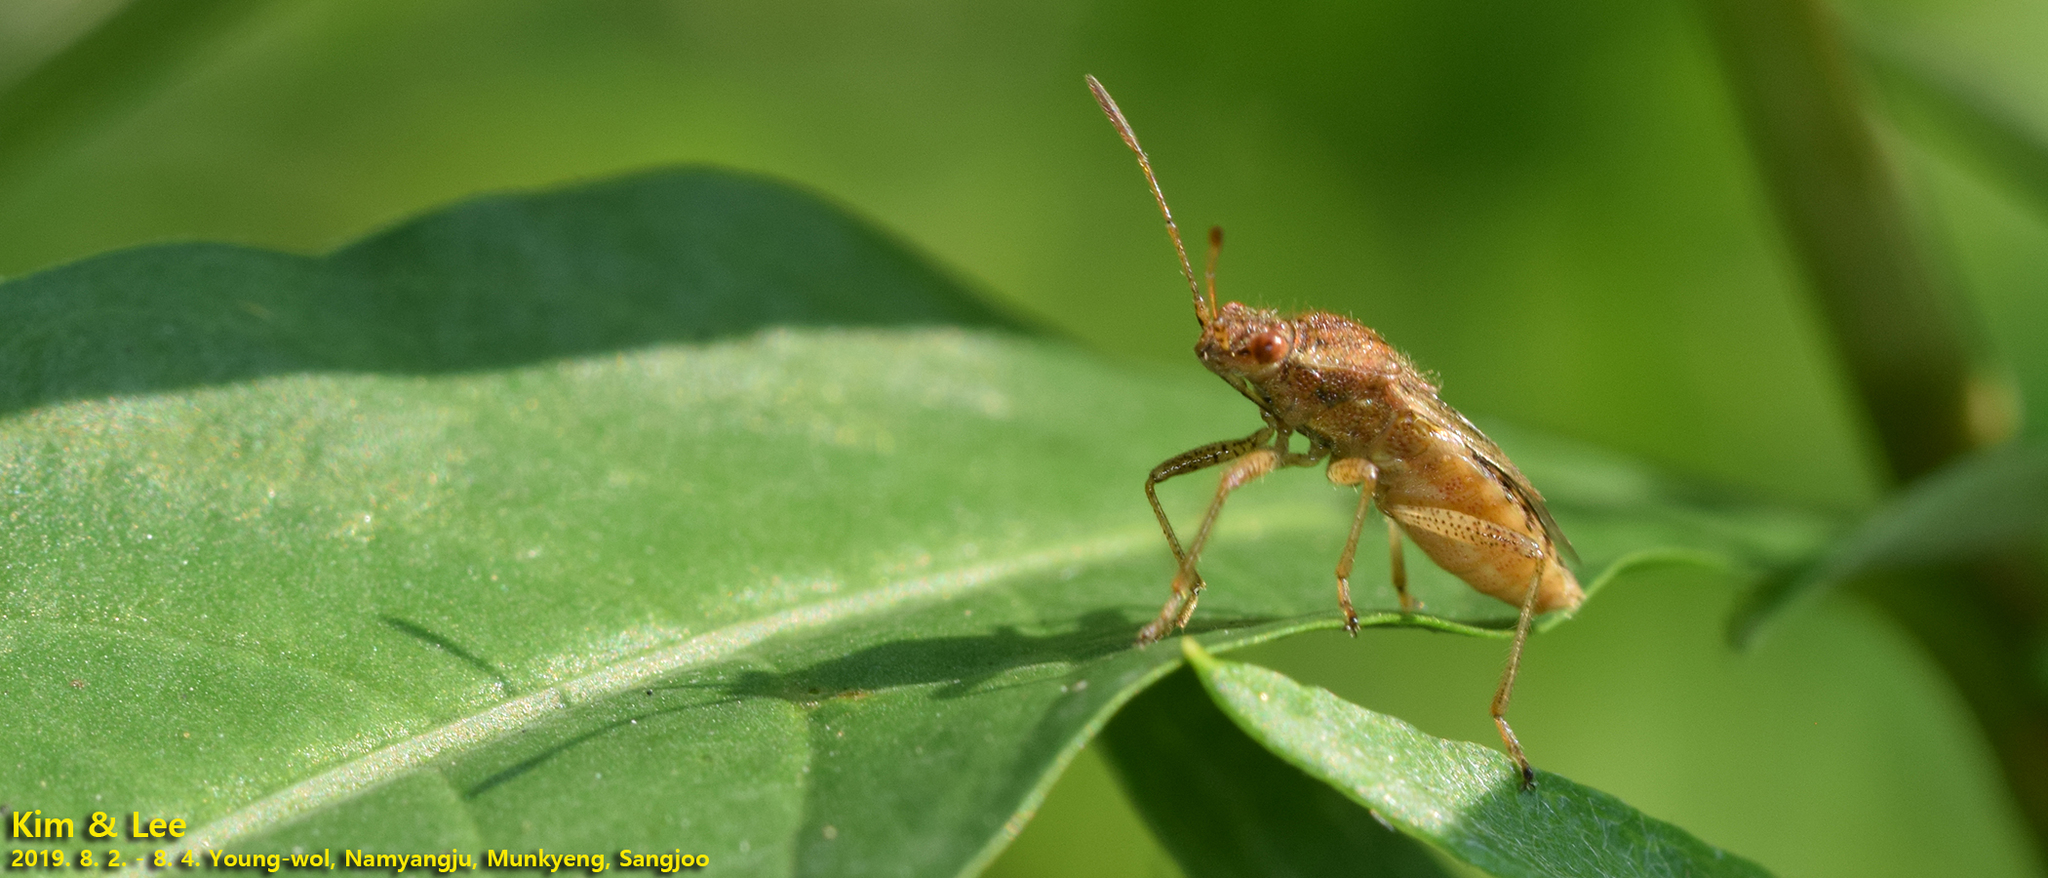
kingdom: Animalia
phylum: Arthropoda
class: Insecta
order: Hemiptera
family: Rhopalidae
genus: Rhopalus
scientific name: Rhopalus parumpunctatus
